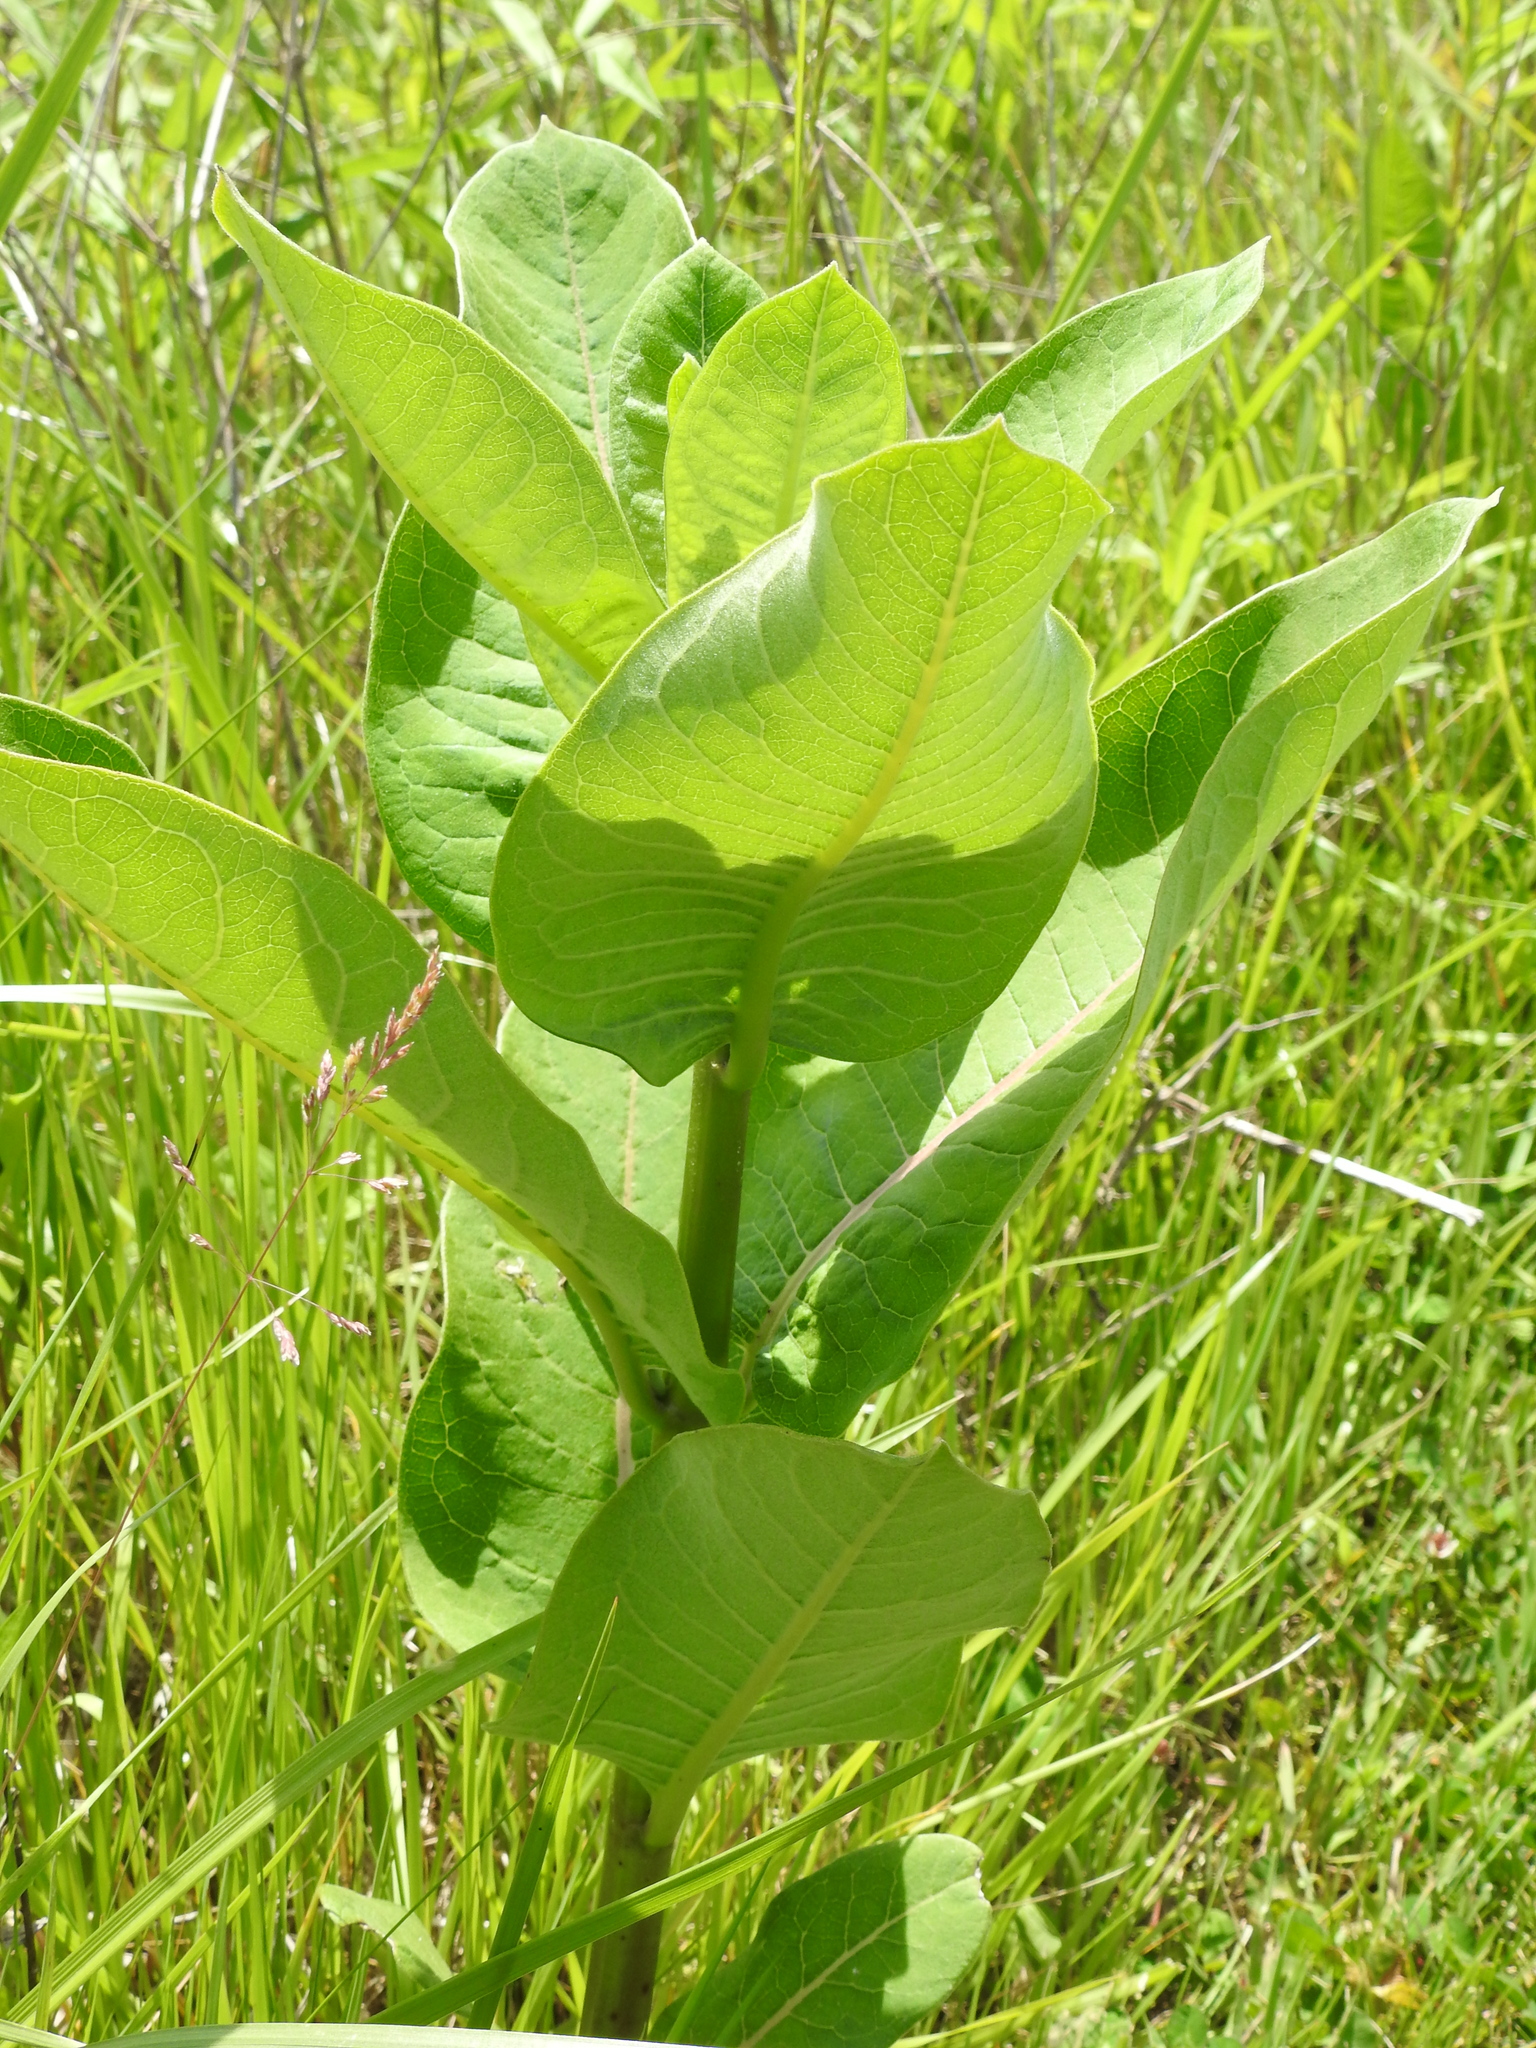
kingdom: Plantae
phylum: Tracheophyta
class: Magnoliopsida
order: Gentianales
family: Apocynaceae
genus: Asclepias
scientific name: Asclepias syriaca
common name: Common milkweed
